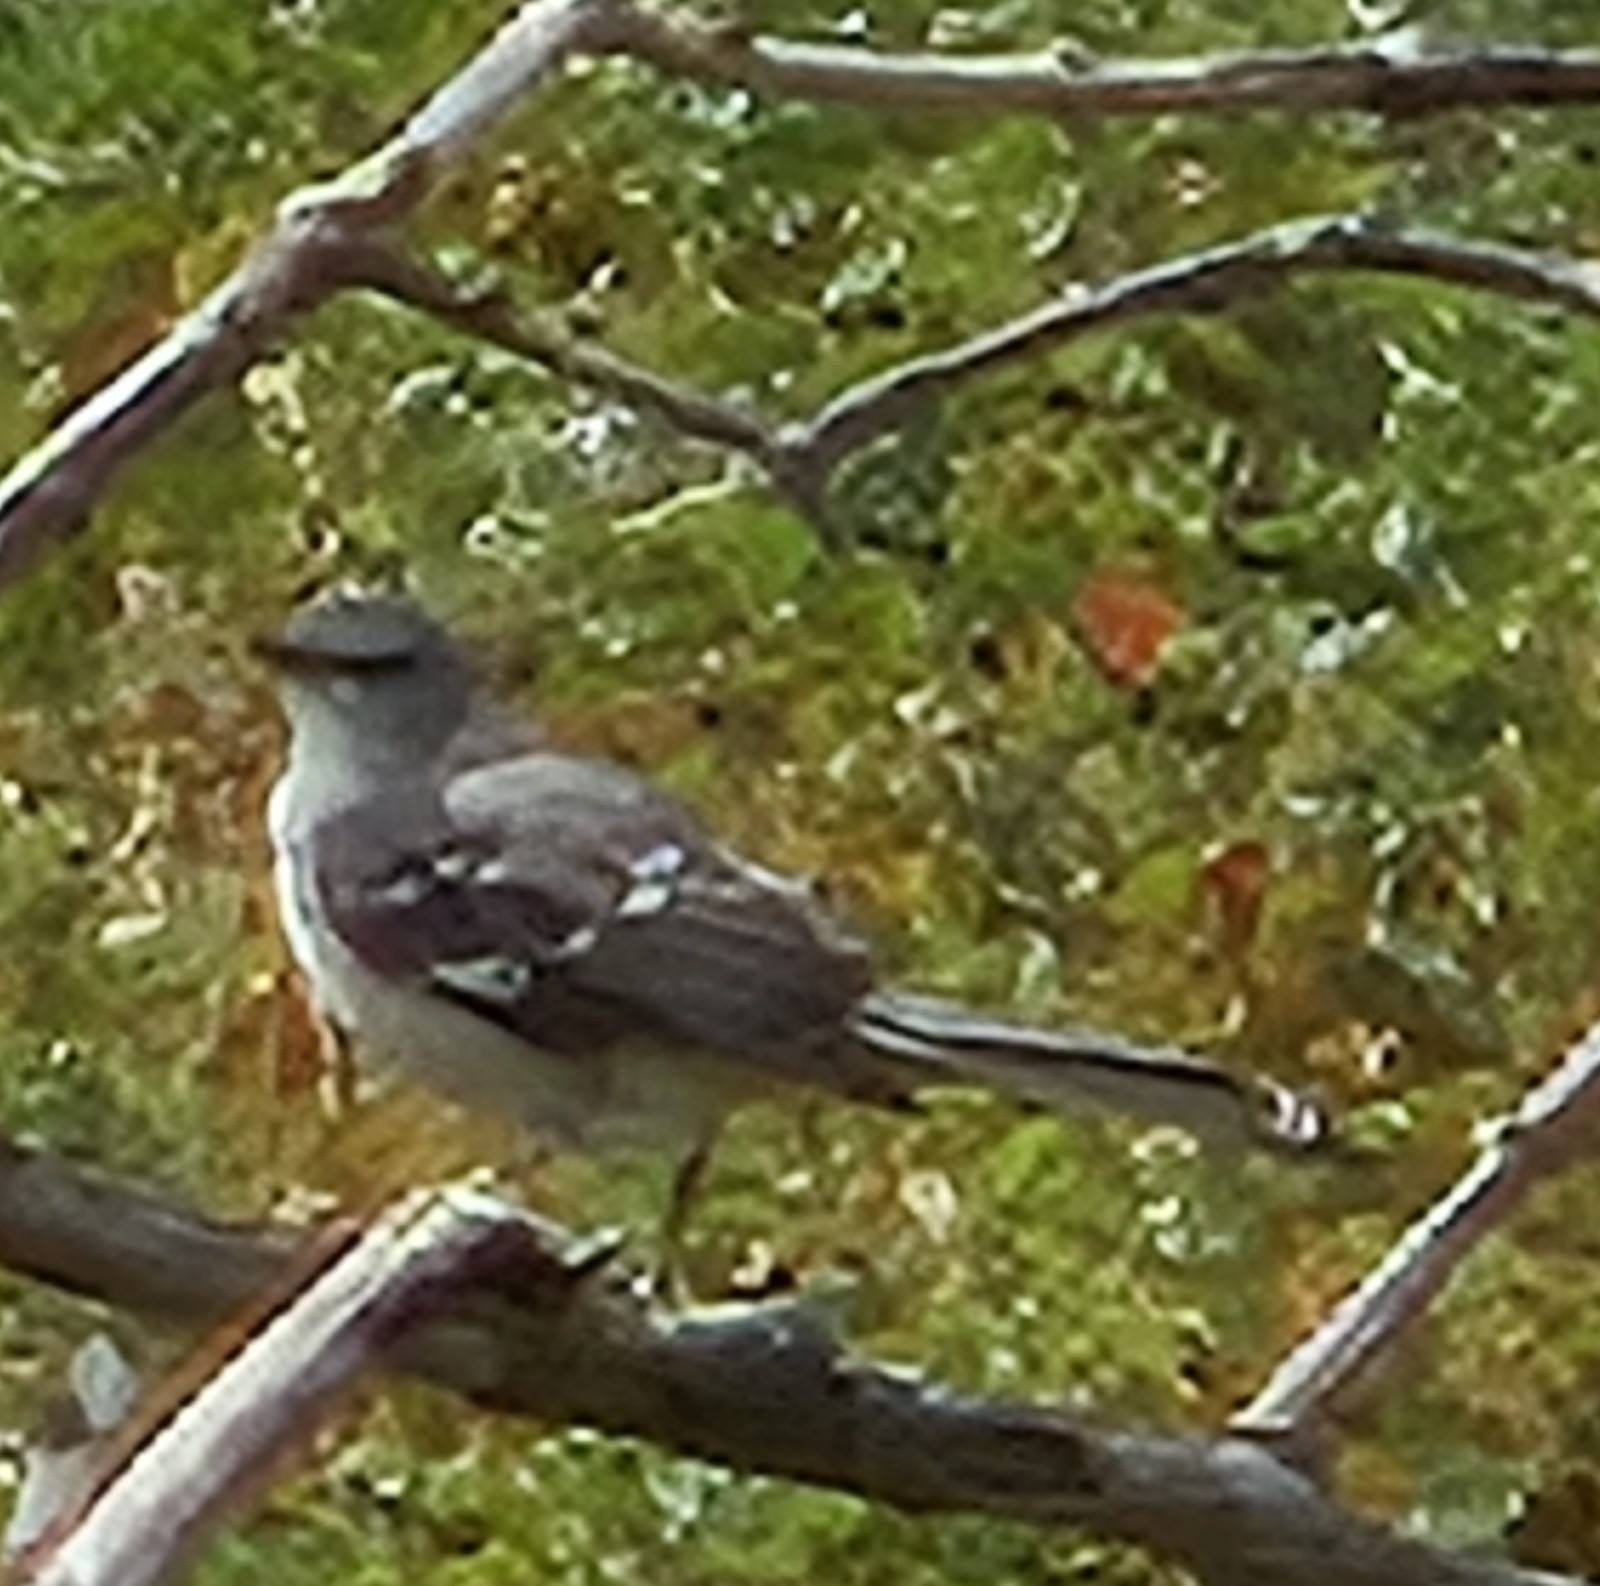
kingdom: Animalia
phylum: Chordata
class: Aves
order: Passeriformes
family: Mimidae
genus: Mimus
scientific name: Mimus polyglottos
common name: Northern mockingbird
